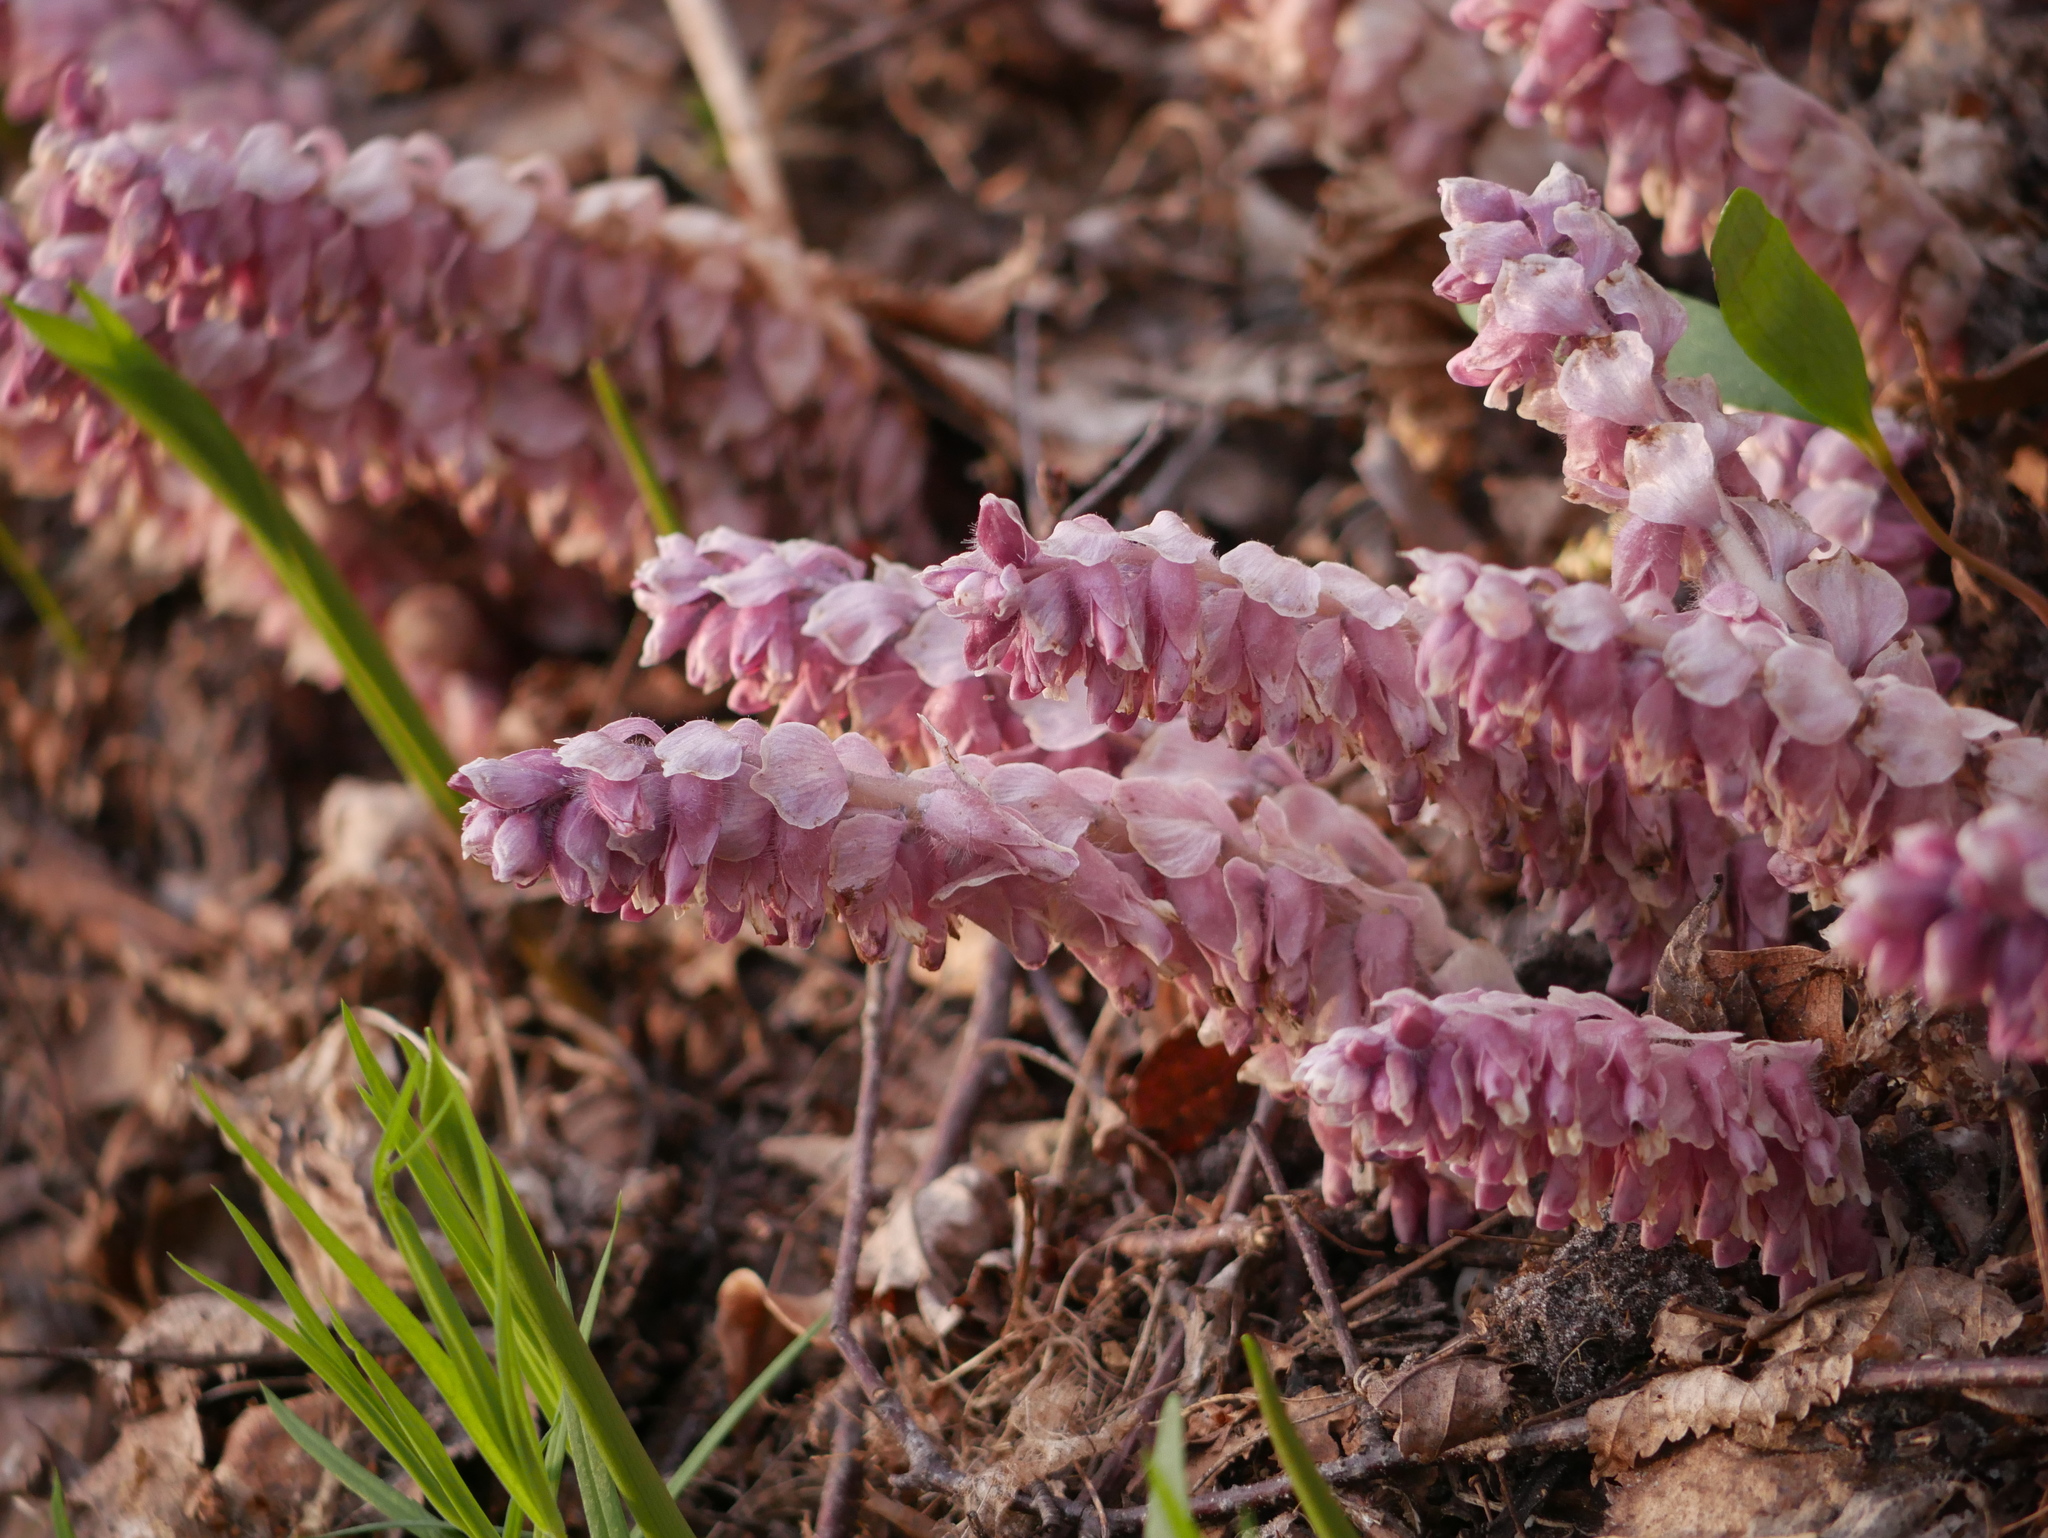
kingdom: Plantae
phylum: Tracheophyta
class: Magnoliopsida
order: Lamiales
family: Orobanchaceae
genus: Lathraea
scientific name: Lathraea squamaria
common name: Toothwort
